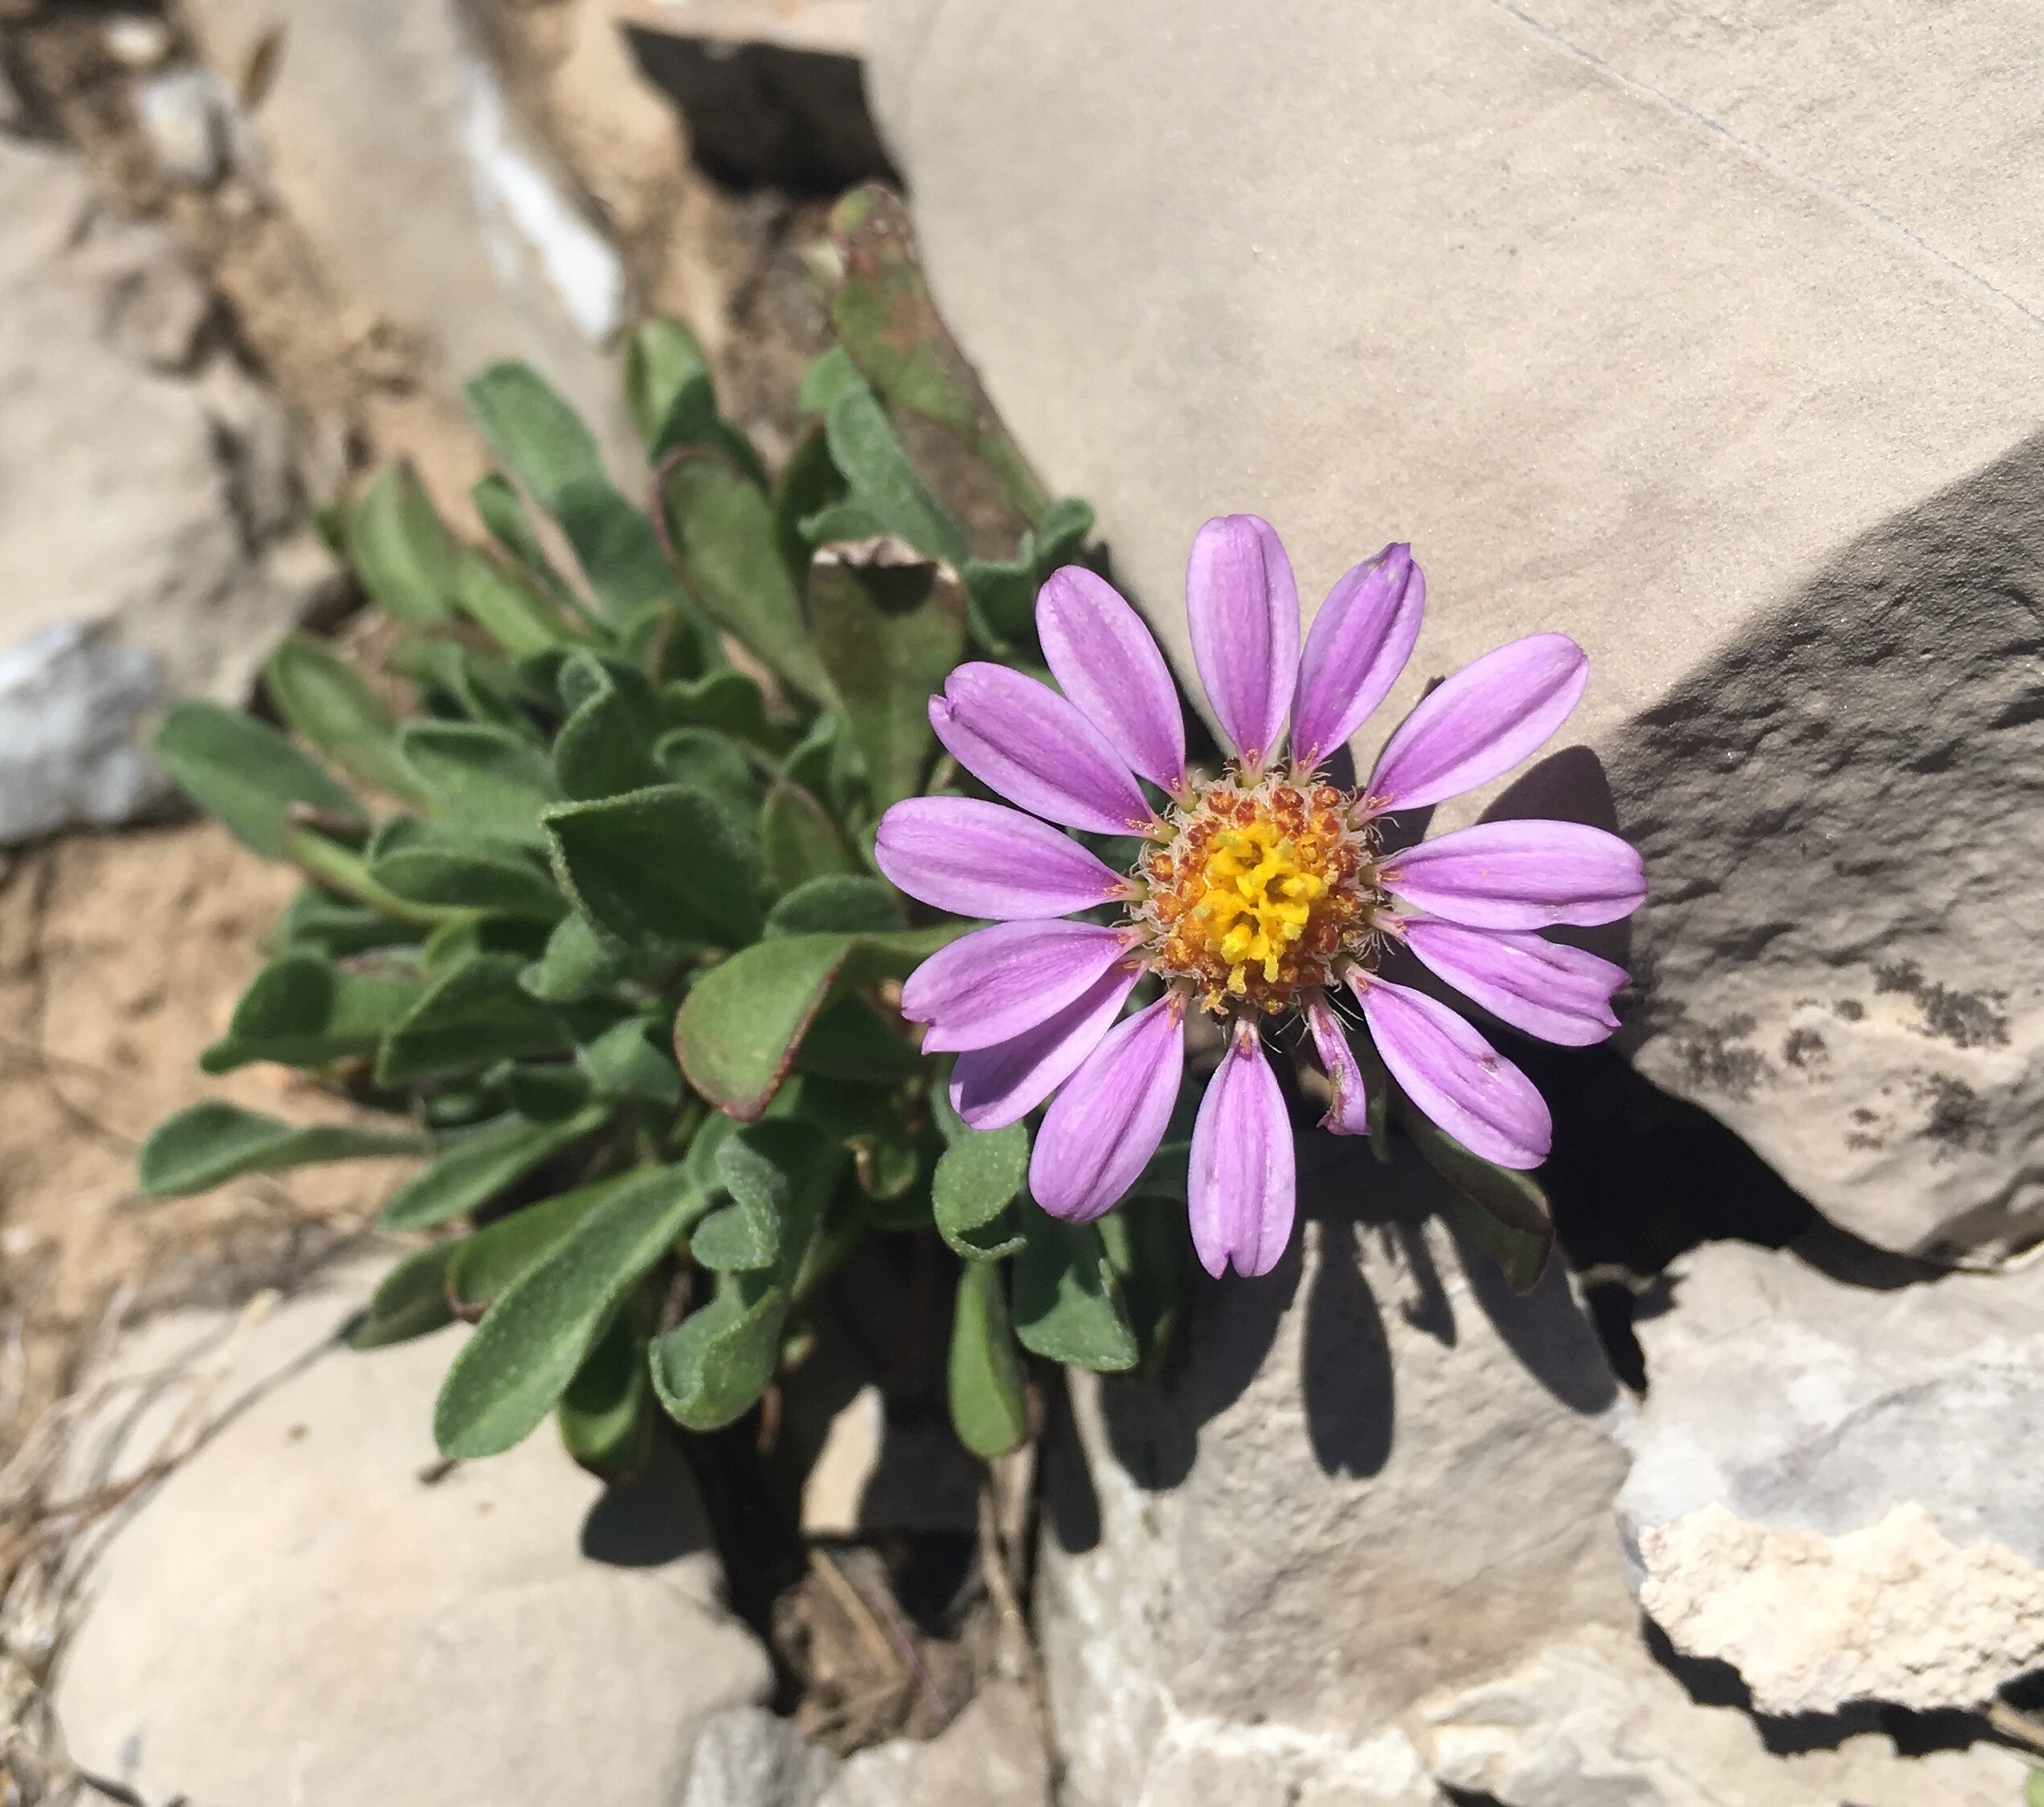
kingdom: Plantae
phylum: Tracheophyta
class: Magnoliopsida
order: Asterales
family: Asteraceae
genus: Townsendia
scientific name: Townsendia montana
